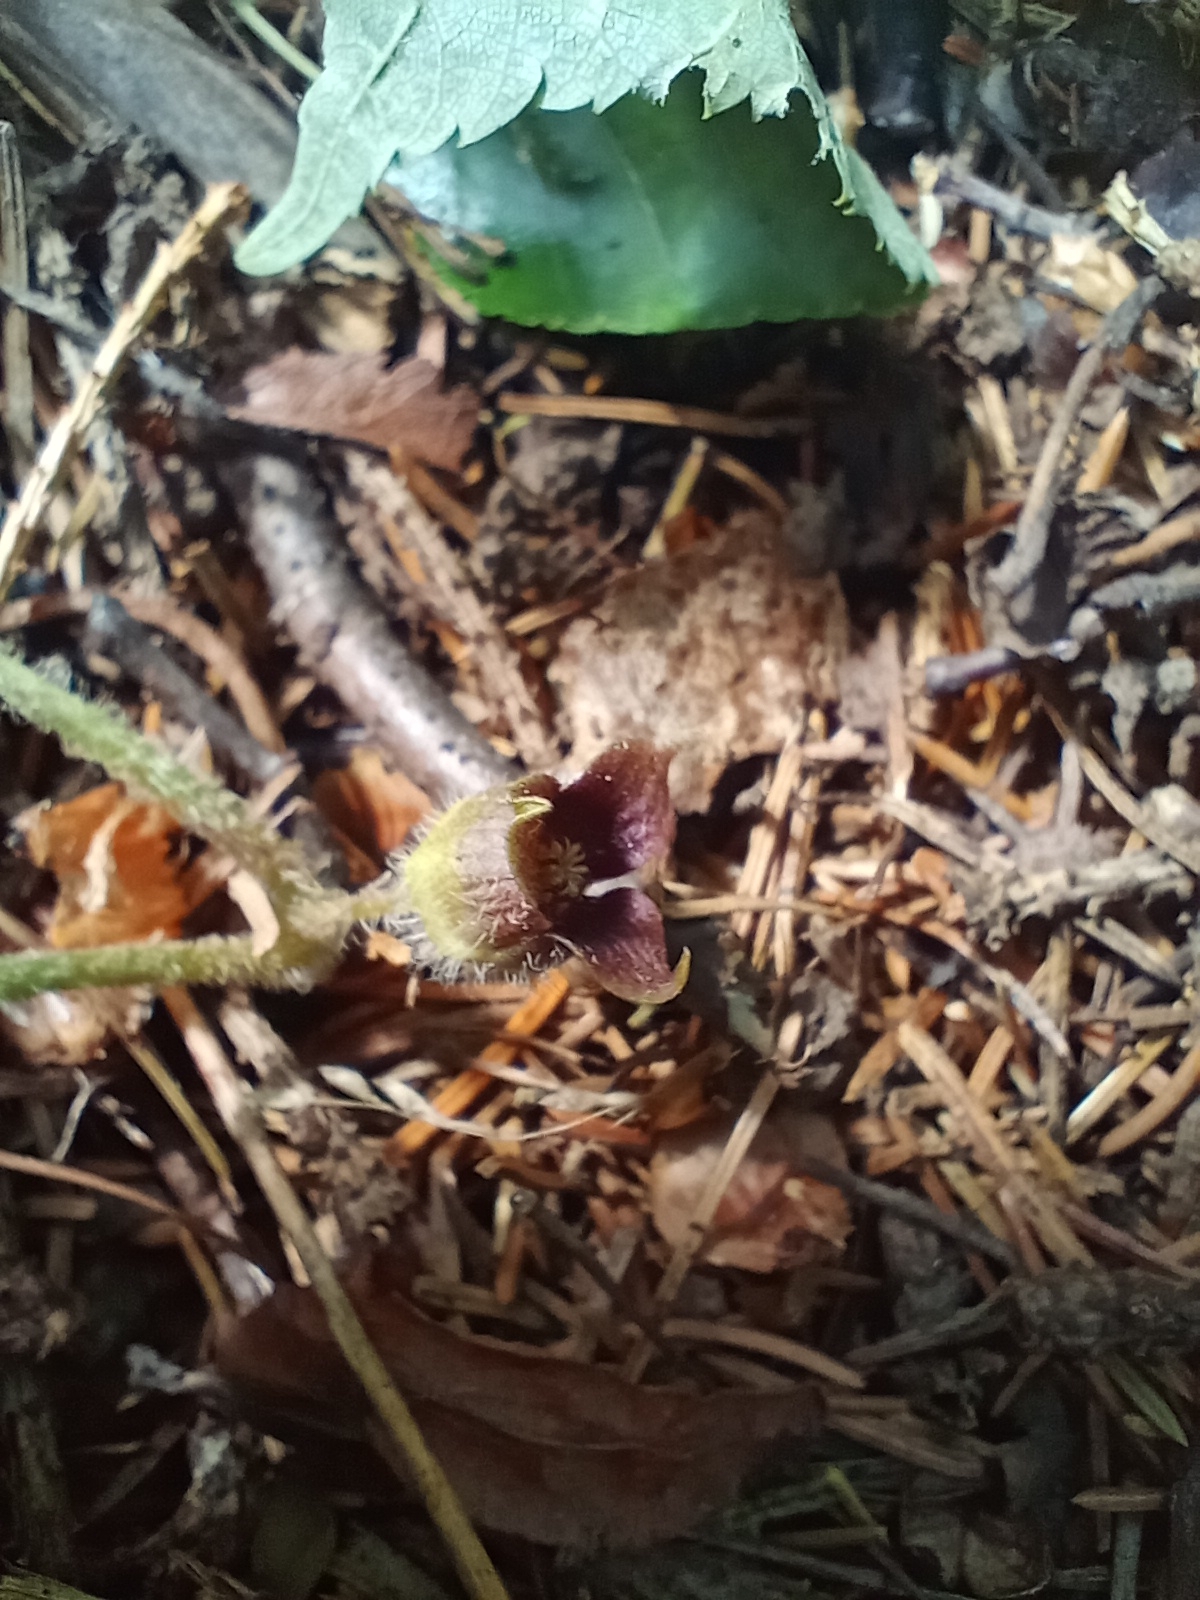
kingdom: Plantae
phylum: Tracheophyta
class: Magnoliopsida
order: Piperales
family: Aristolochiaceae
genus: Asarum
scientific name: Asarum europaeum
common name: Asarabacca
